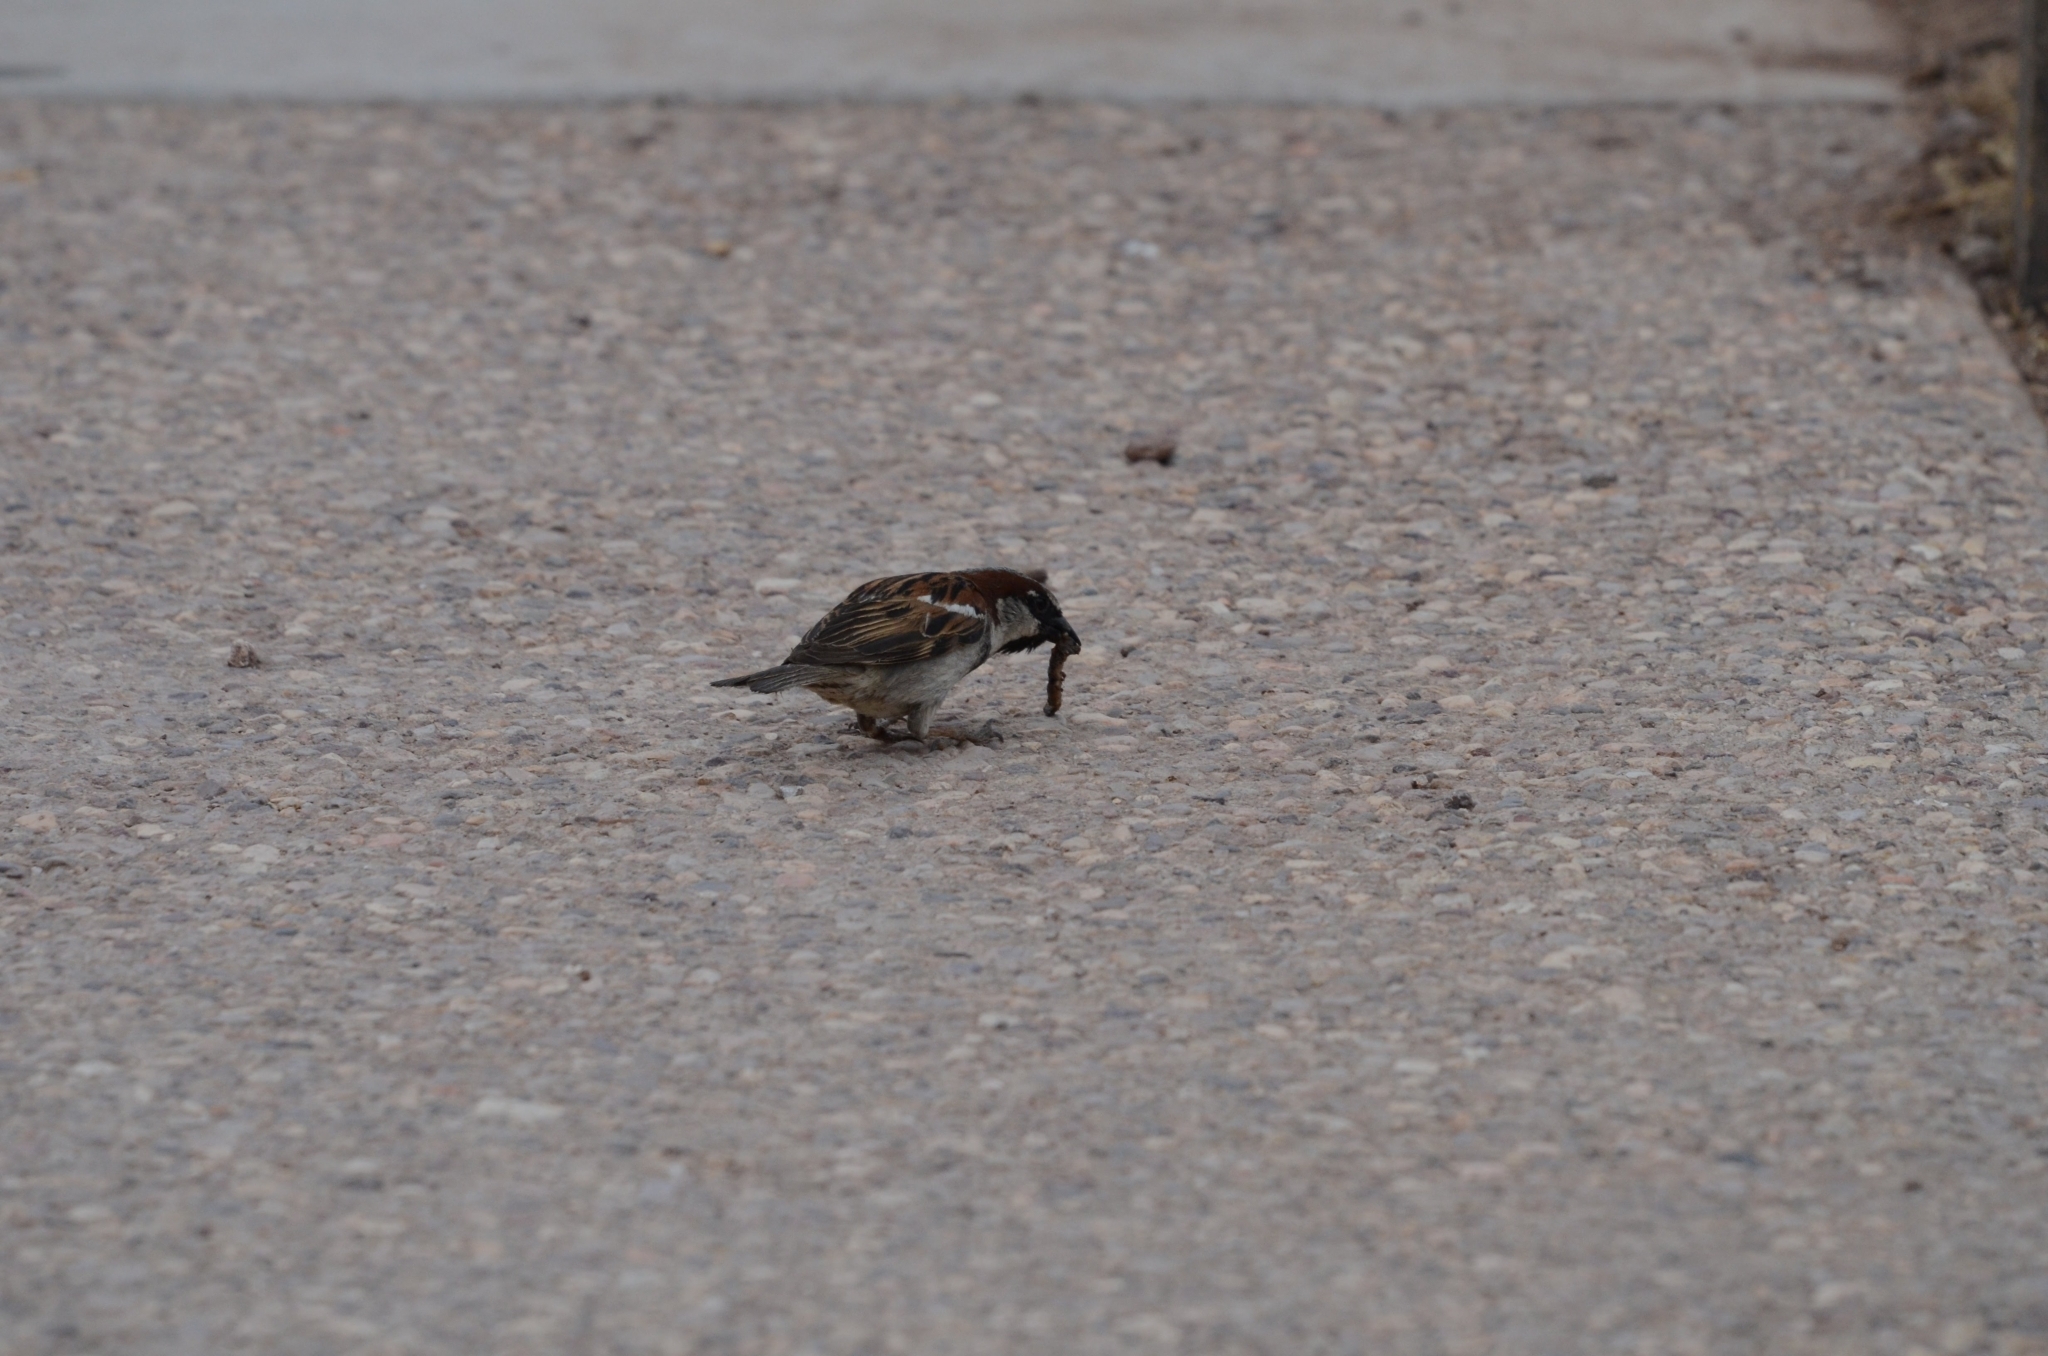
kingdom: Animalia
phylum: Chordata
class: Aves
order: Passeriformes
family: Passeridae
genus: Passer
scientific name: Passer domesticus
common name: House sparrow
